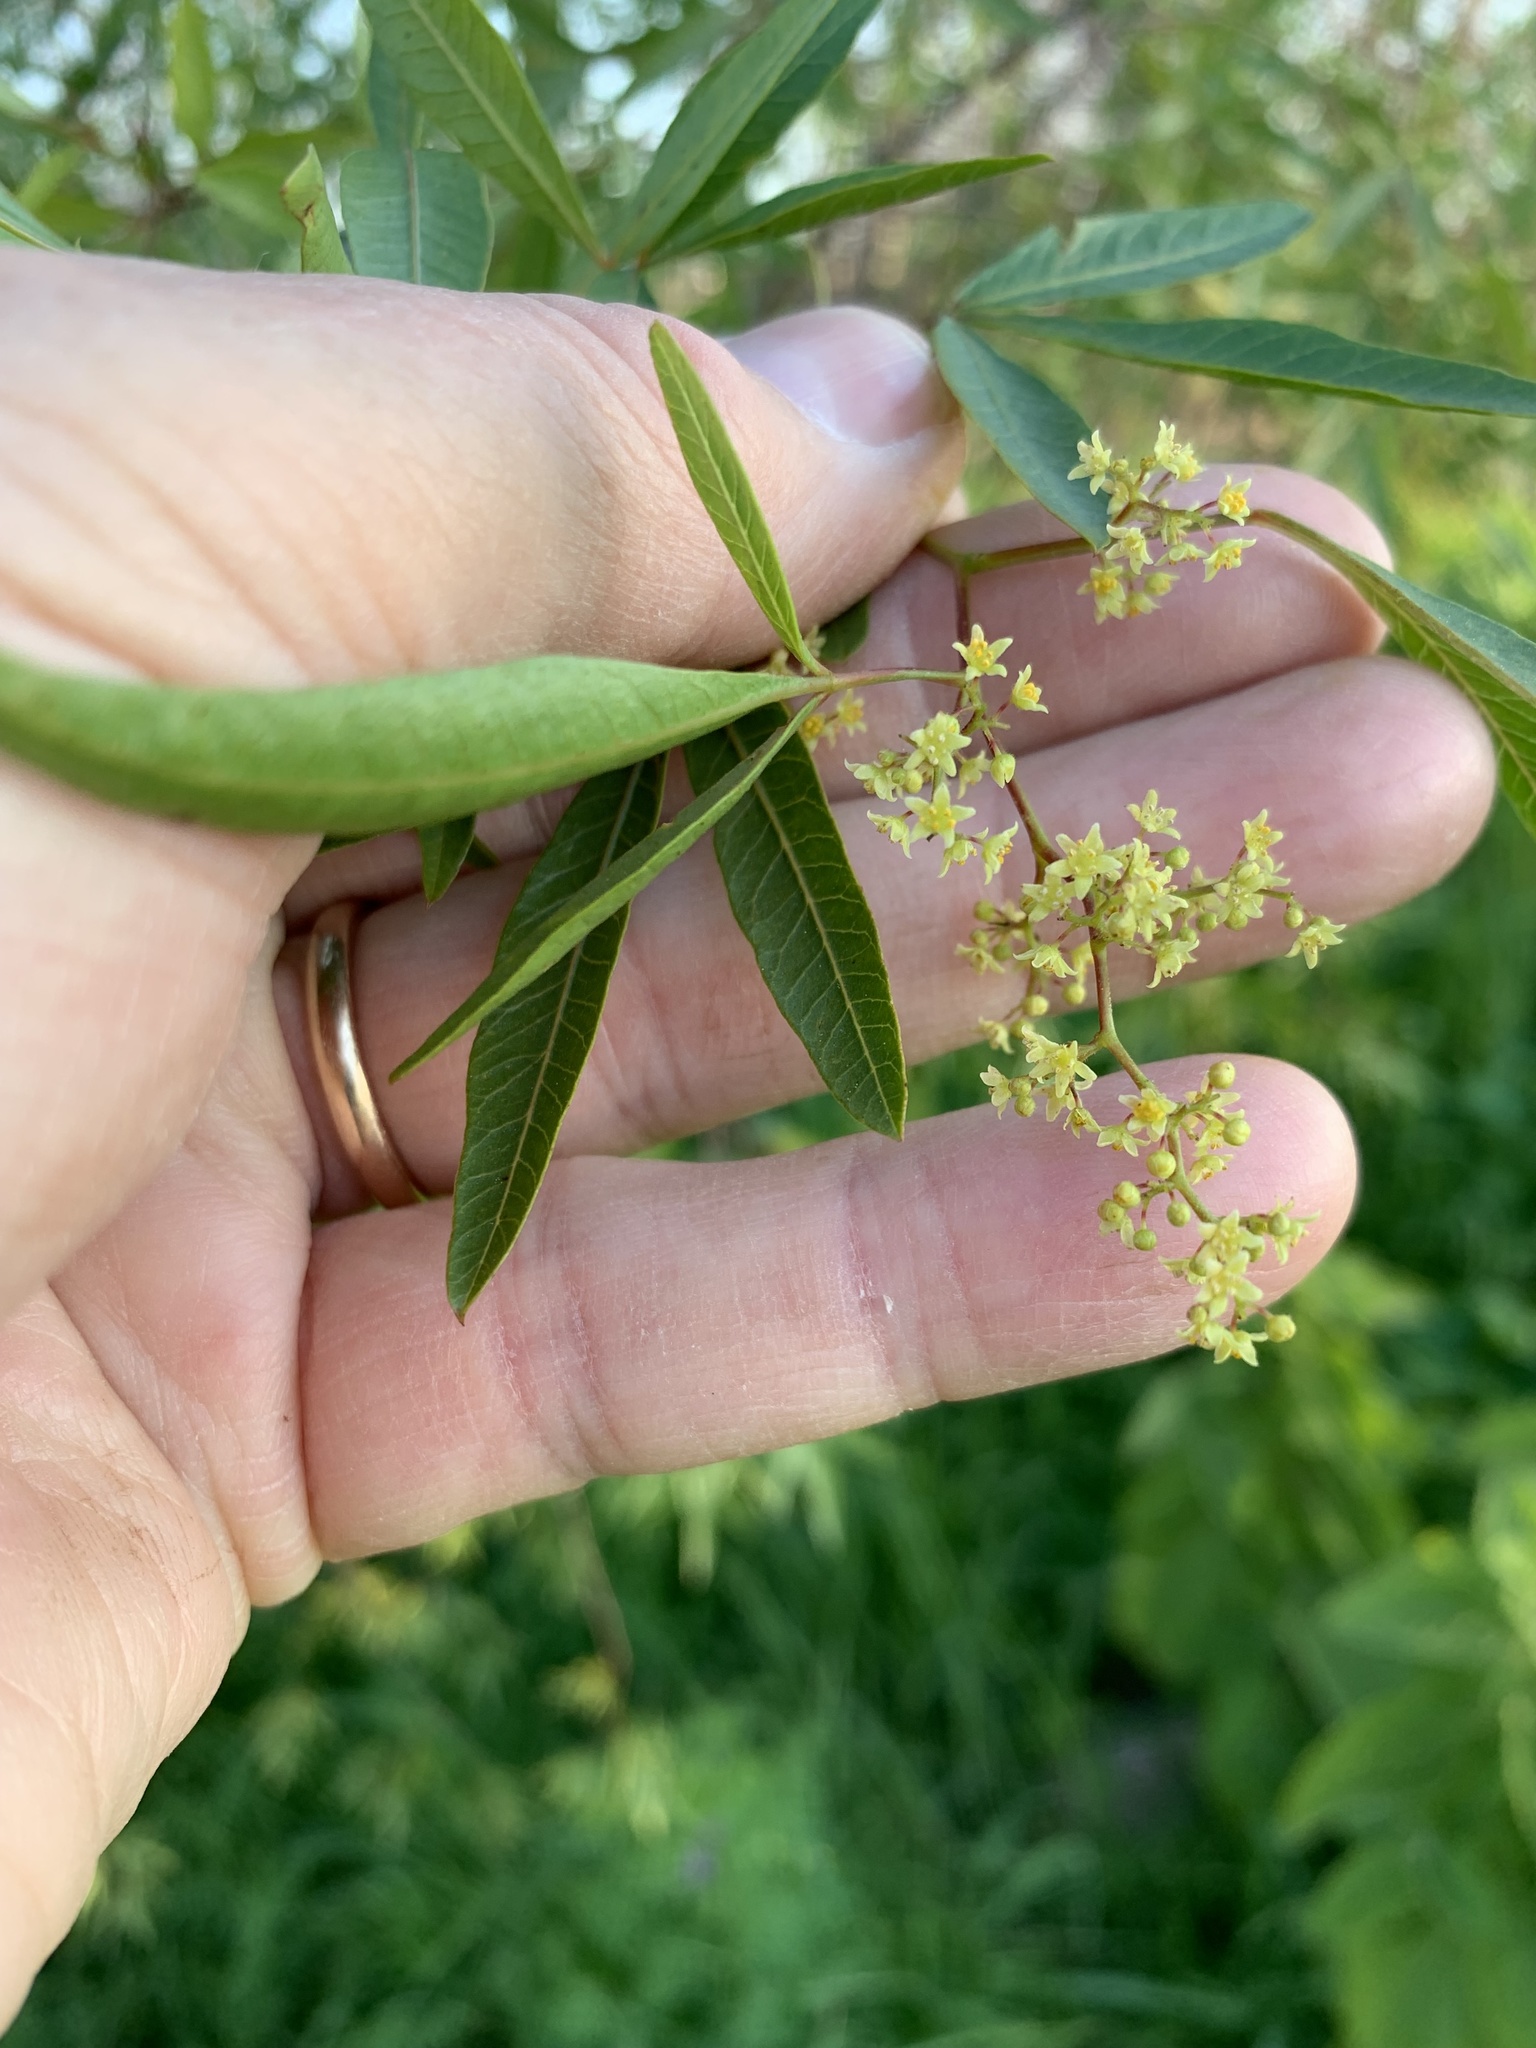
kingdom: Plantae
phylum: Tracheophyta
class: Magnoliopsida
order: Sapindales
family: Anacardiaceae
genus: Searsia
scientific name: Searsia pendulina
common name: White karee
